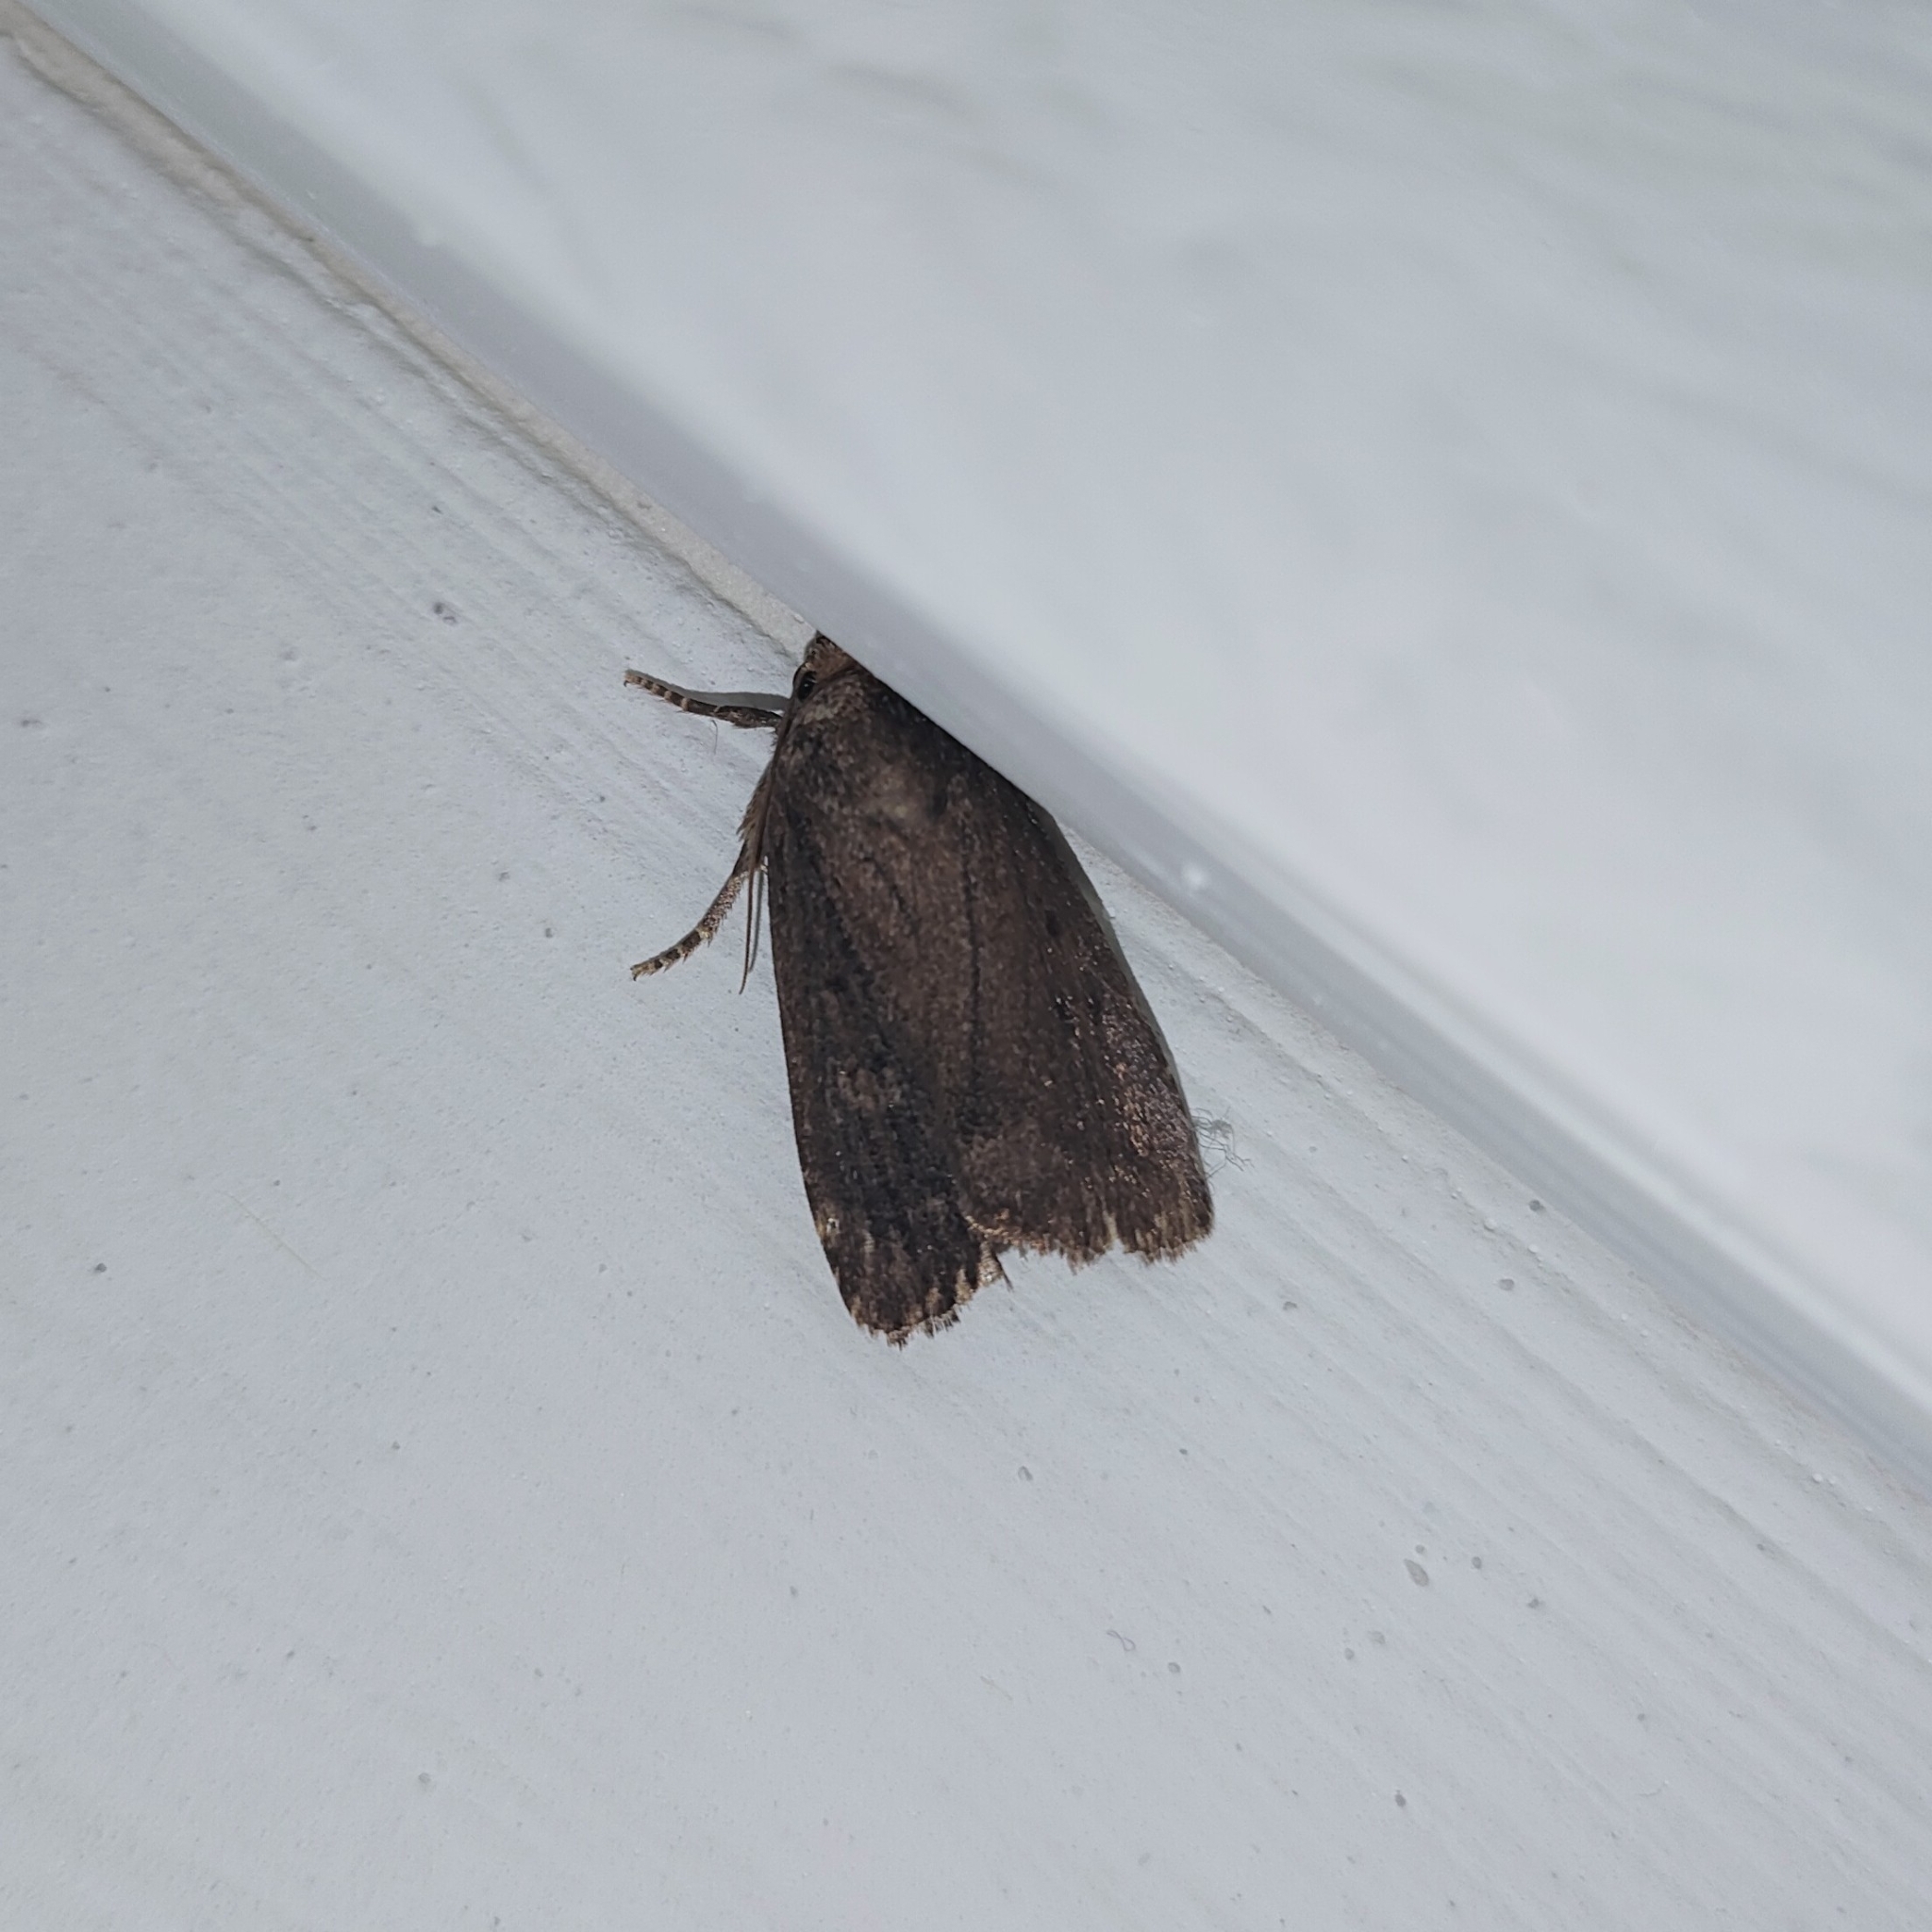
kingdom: Animalia
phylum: Arthropoda
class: Insecta
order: Lepidoptera
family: Noctuidae
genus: Amphipyra
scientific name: Amphipyra tragopoginis
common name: Mouse moth
